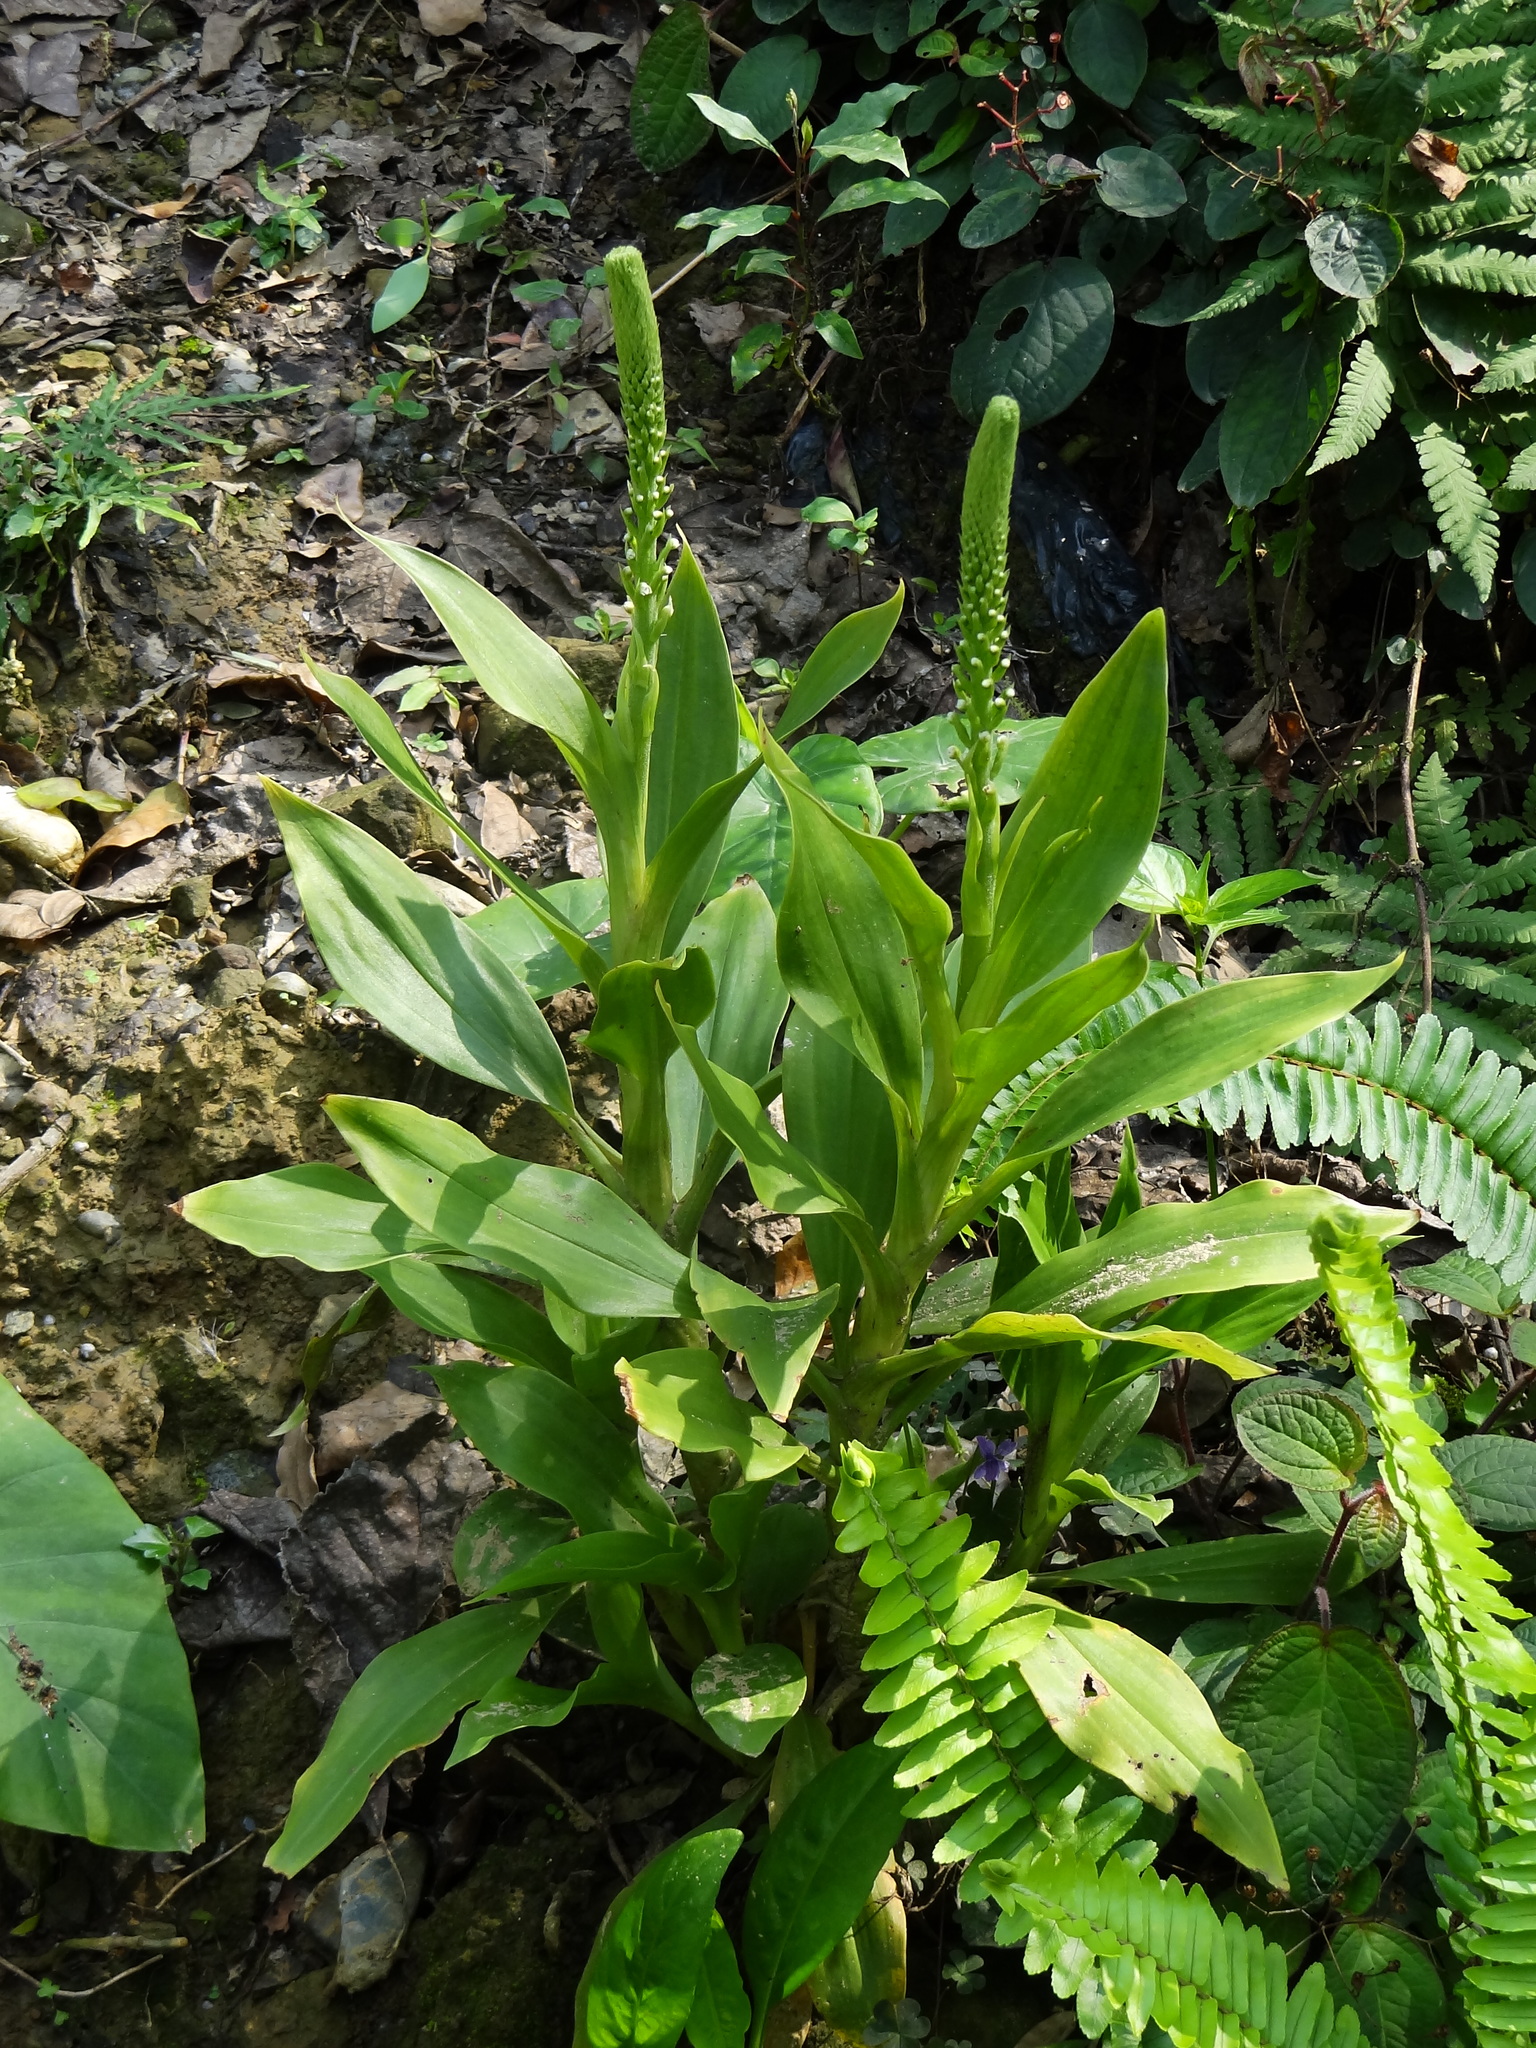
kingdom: Plantae
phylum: Tracheophyta
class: Liliopsida
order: Asparagales
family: Orchidaceae
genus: Goodyera
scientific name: Goodyera procera
